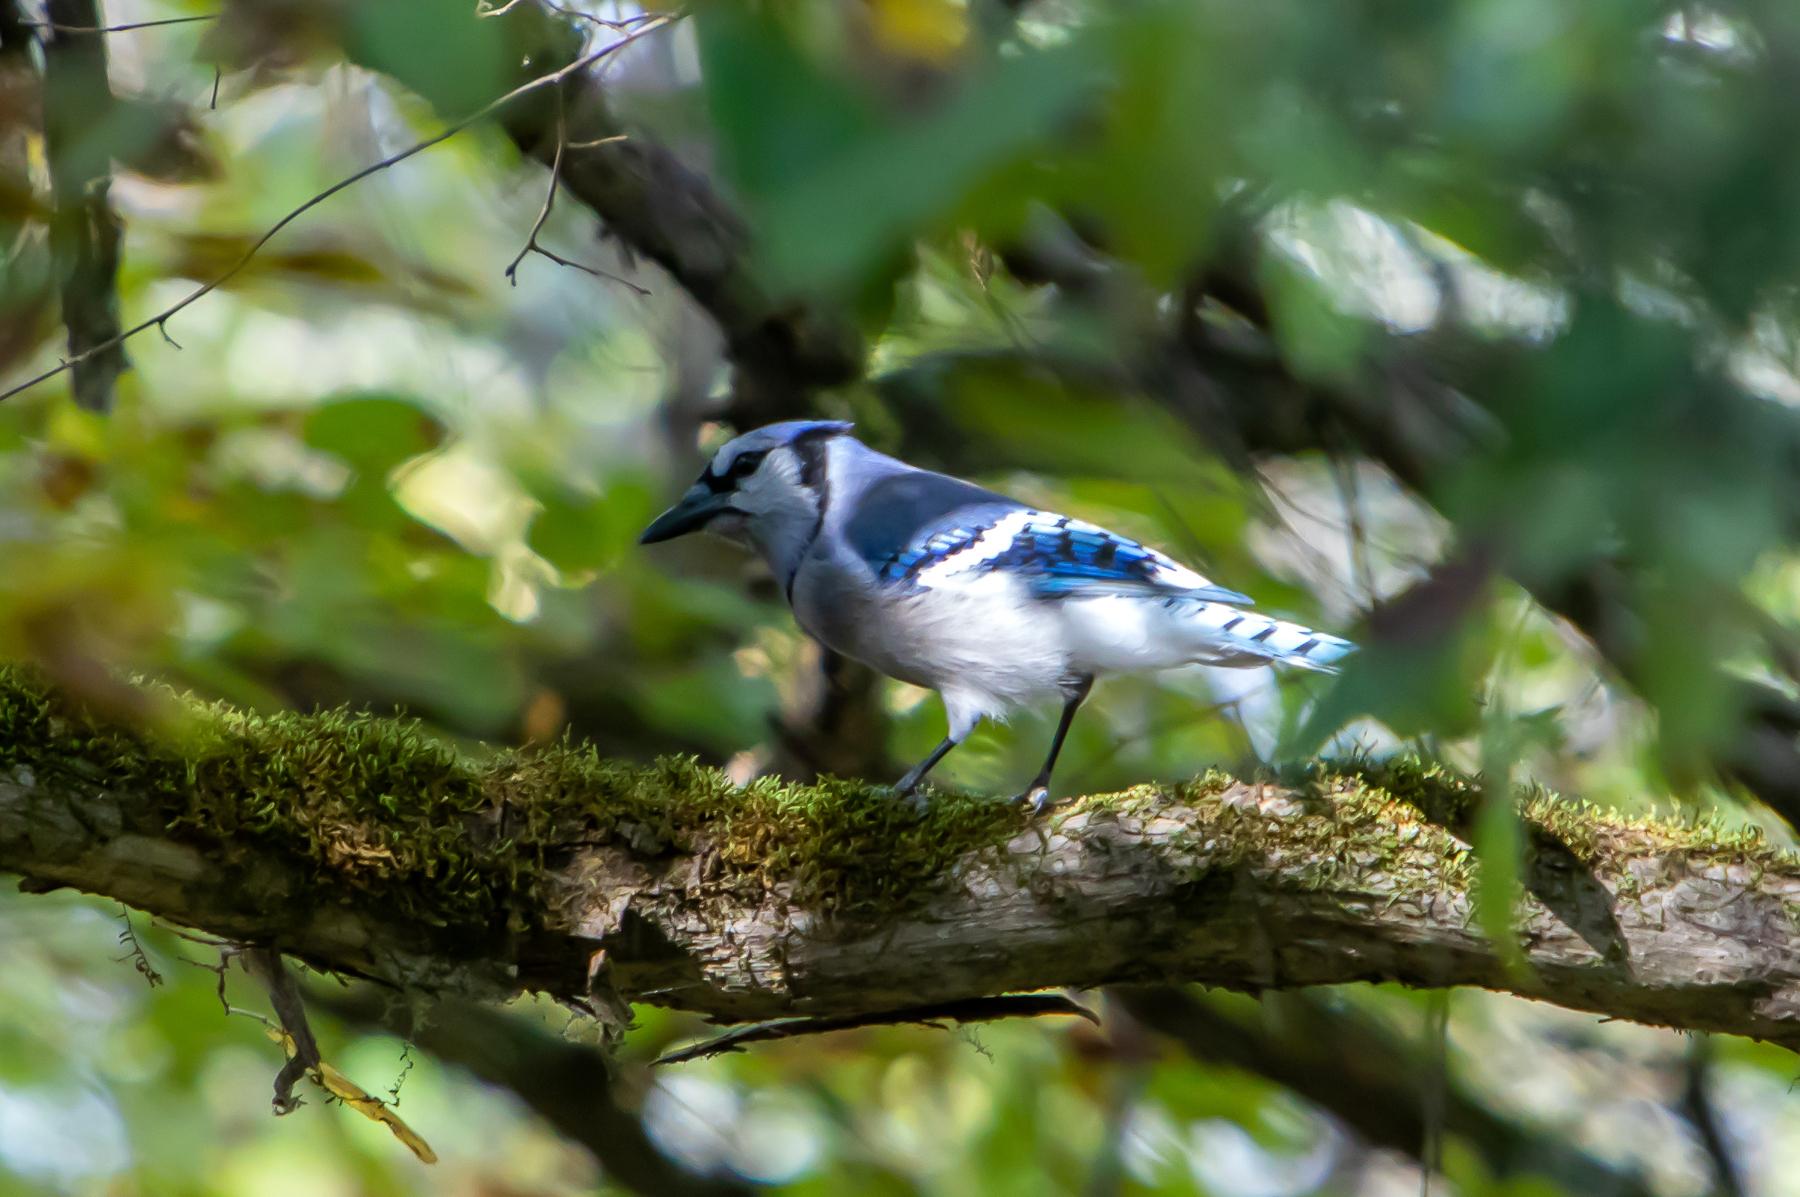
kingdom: Animalia
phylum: Chordata
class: Aves
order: Passeriformes
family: Corvidae
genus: Cyanocitta
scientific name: Cyanocitta cristata
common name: Blue jay
